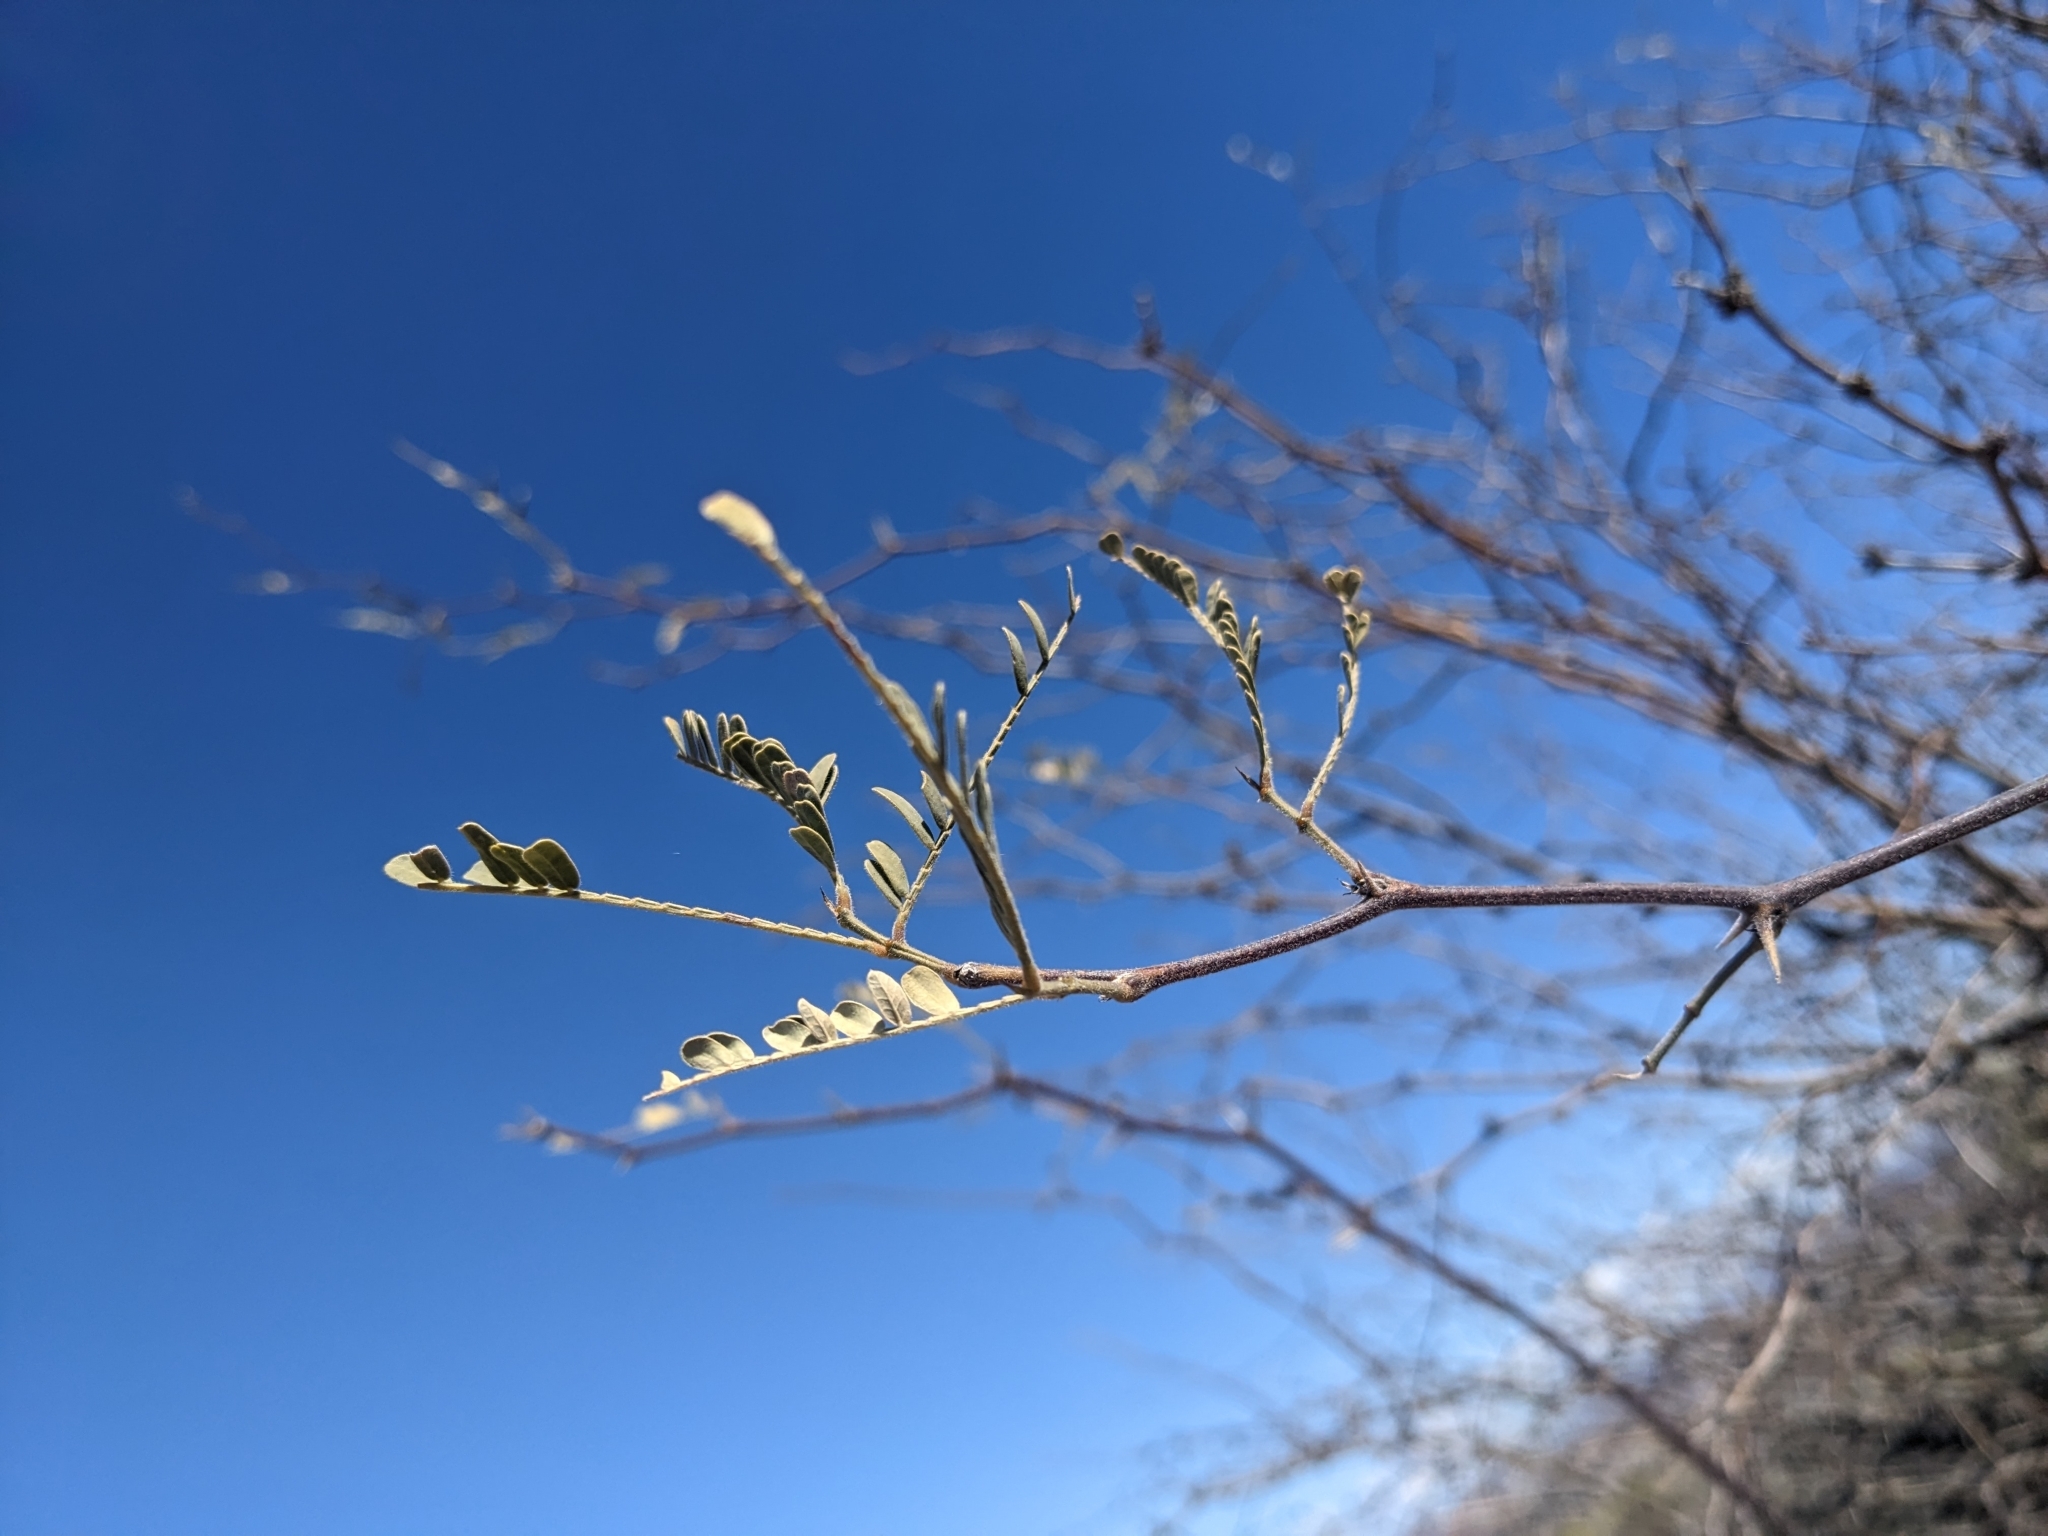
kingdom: Plantae
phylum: Tracheophyta
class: Magnoliopsida
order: Fabales
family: Fabaceae
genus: Prosopis
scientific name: Prosopis velutina
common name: Velvet mesquite
